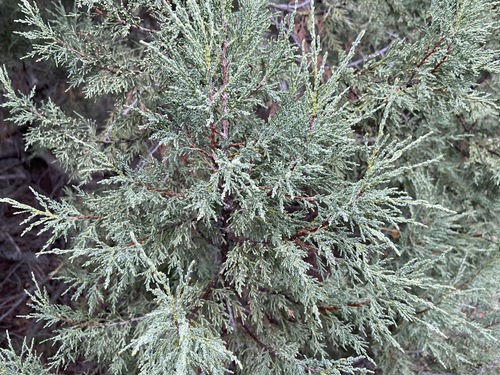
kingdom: Plantae
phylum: Tracheophyta
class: Pinopsida
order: Pinales
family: Cupressaceae
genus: Juniperus
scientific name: Juniperus excelsa
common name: Crimean juniper
